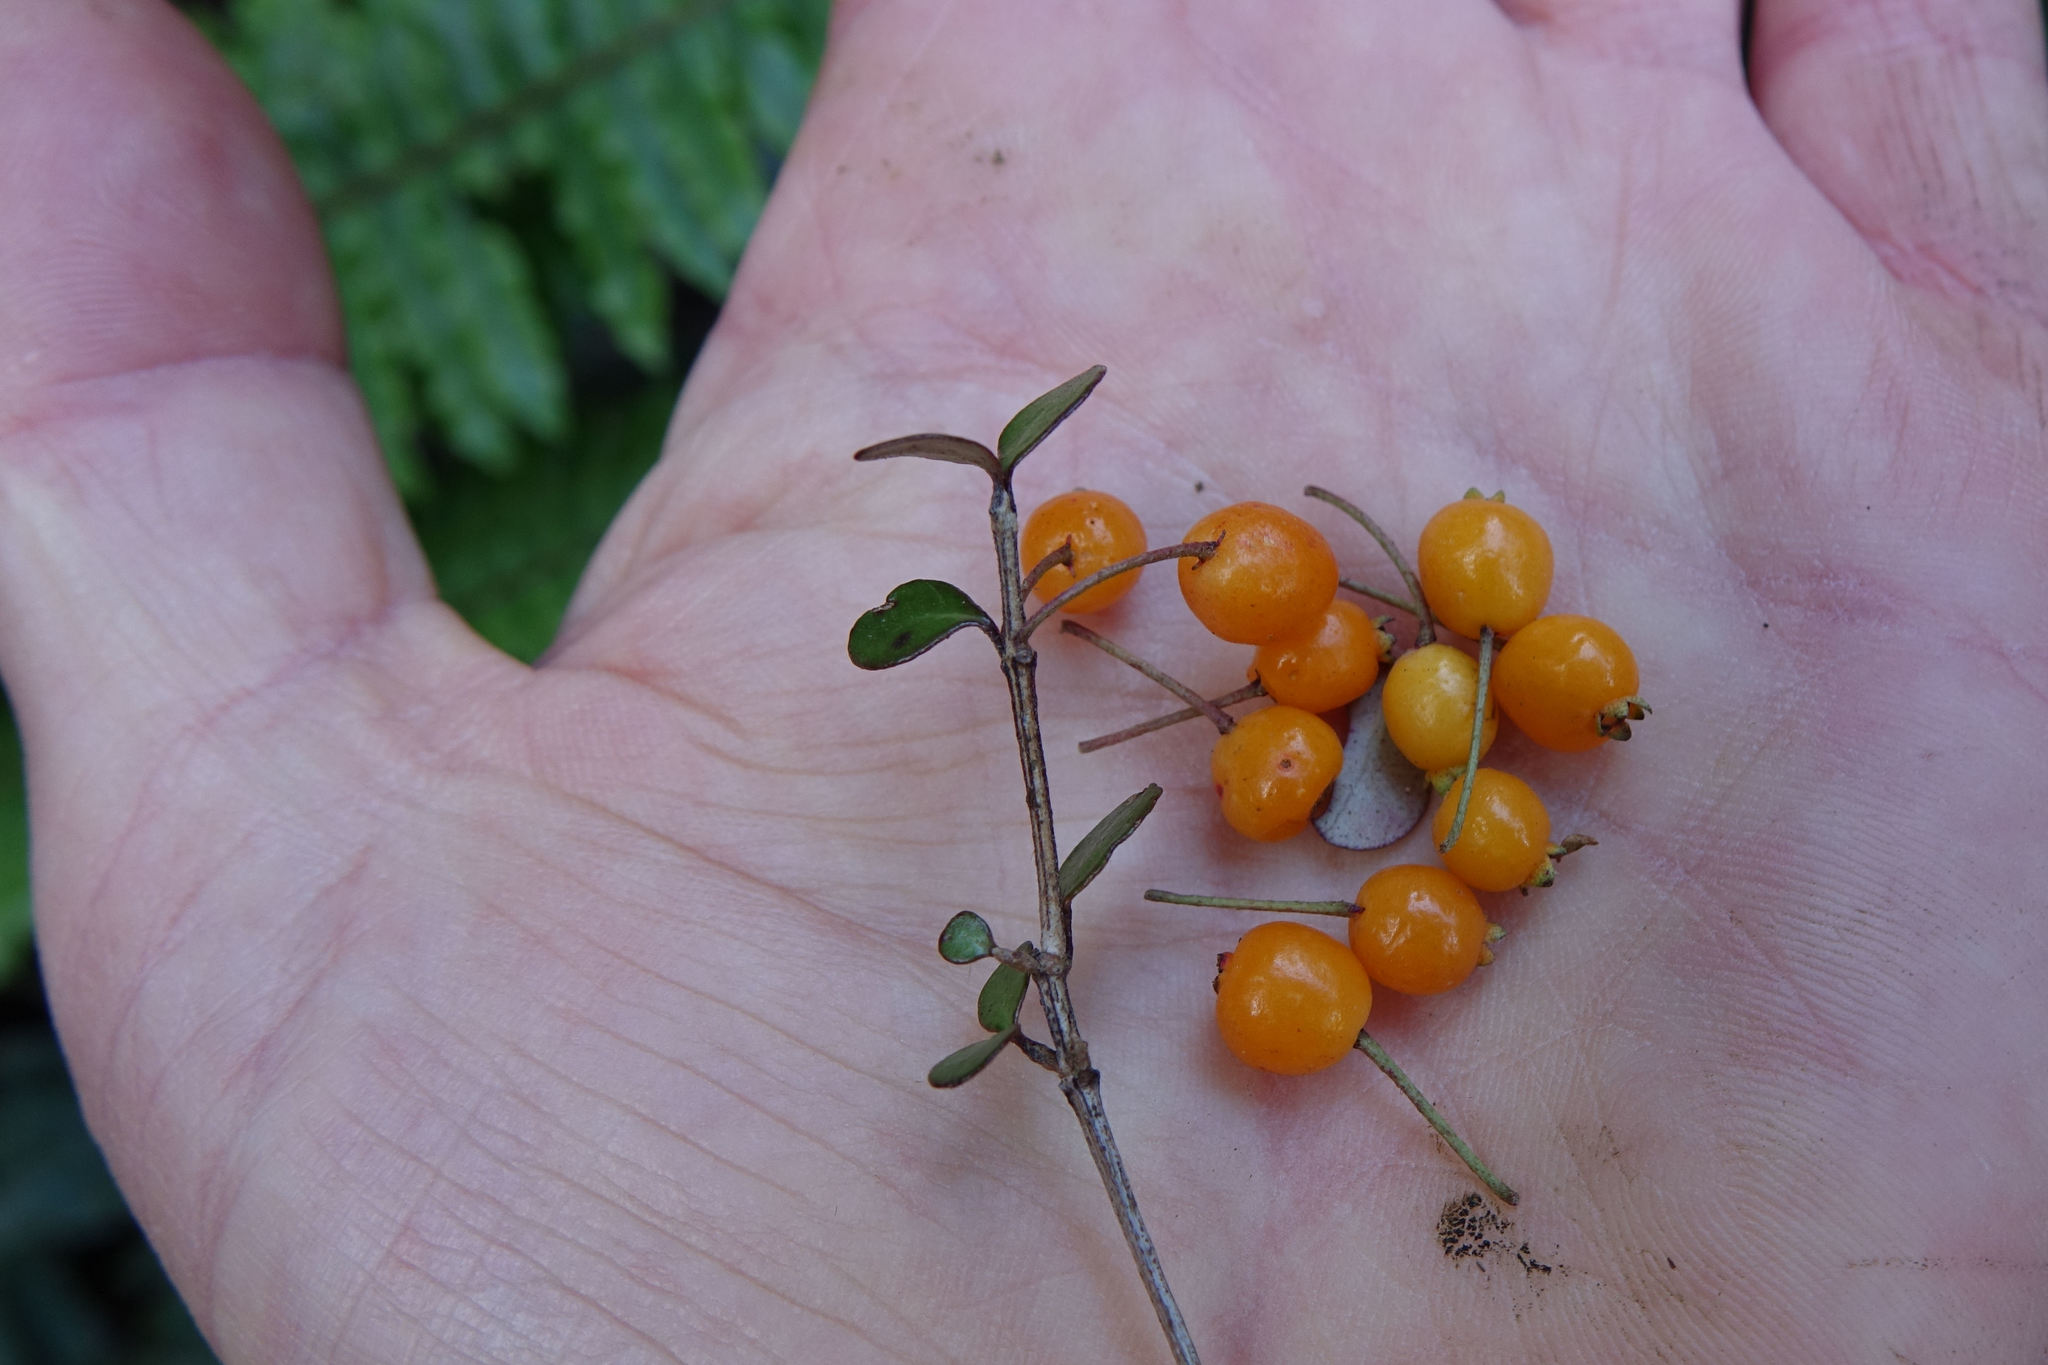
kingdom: Plantae
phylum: Tracheophyta
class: Magnoliopsida
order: Myrtales
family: Myrtaceae
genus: Neomyrtus
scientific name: Neomyrtus pedunculata
